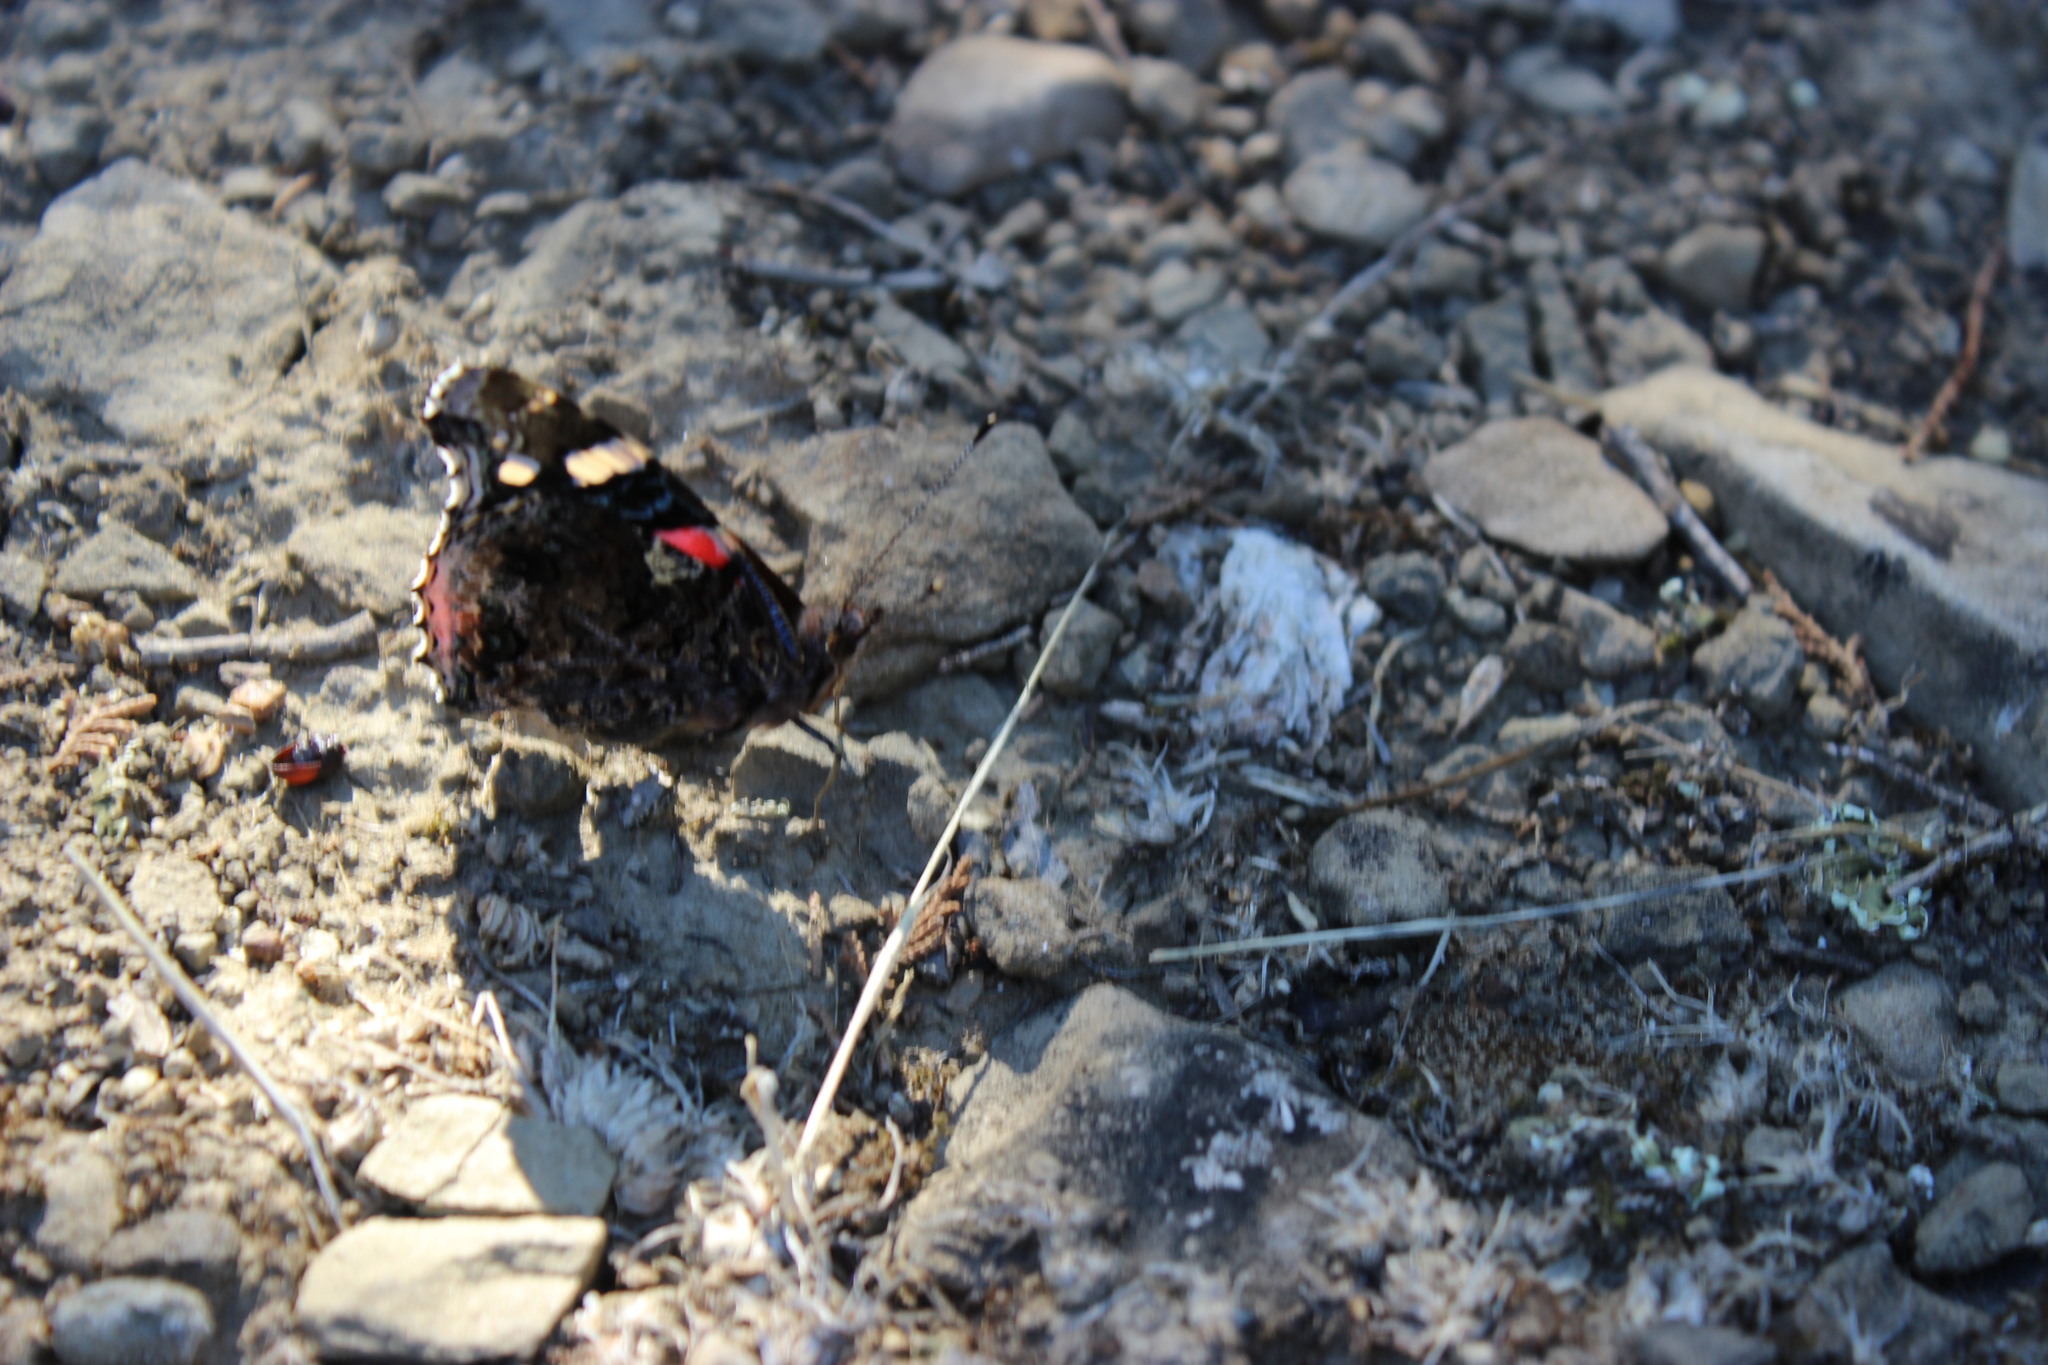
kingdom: Animalia
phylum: Arthropoda
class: Insecta
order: Lepidoptera
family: Nymphalidae
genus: Vanessa
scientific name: Vanessa atalanta
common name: Red admiral
